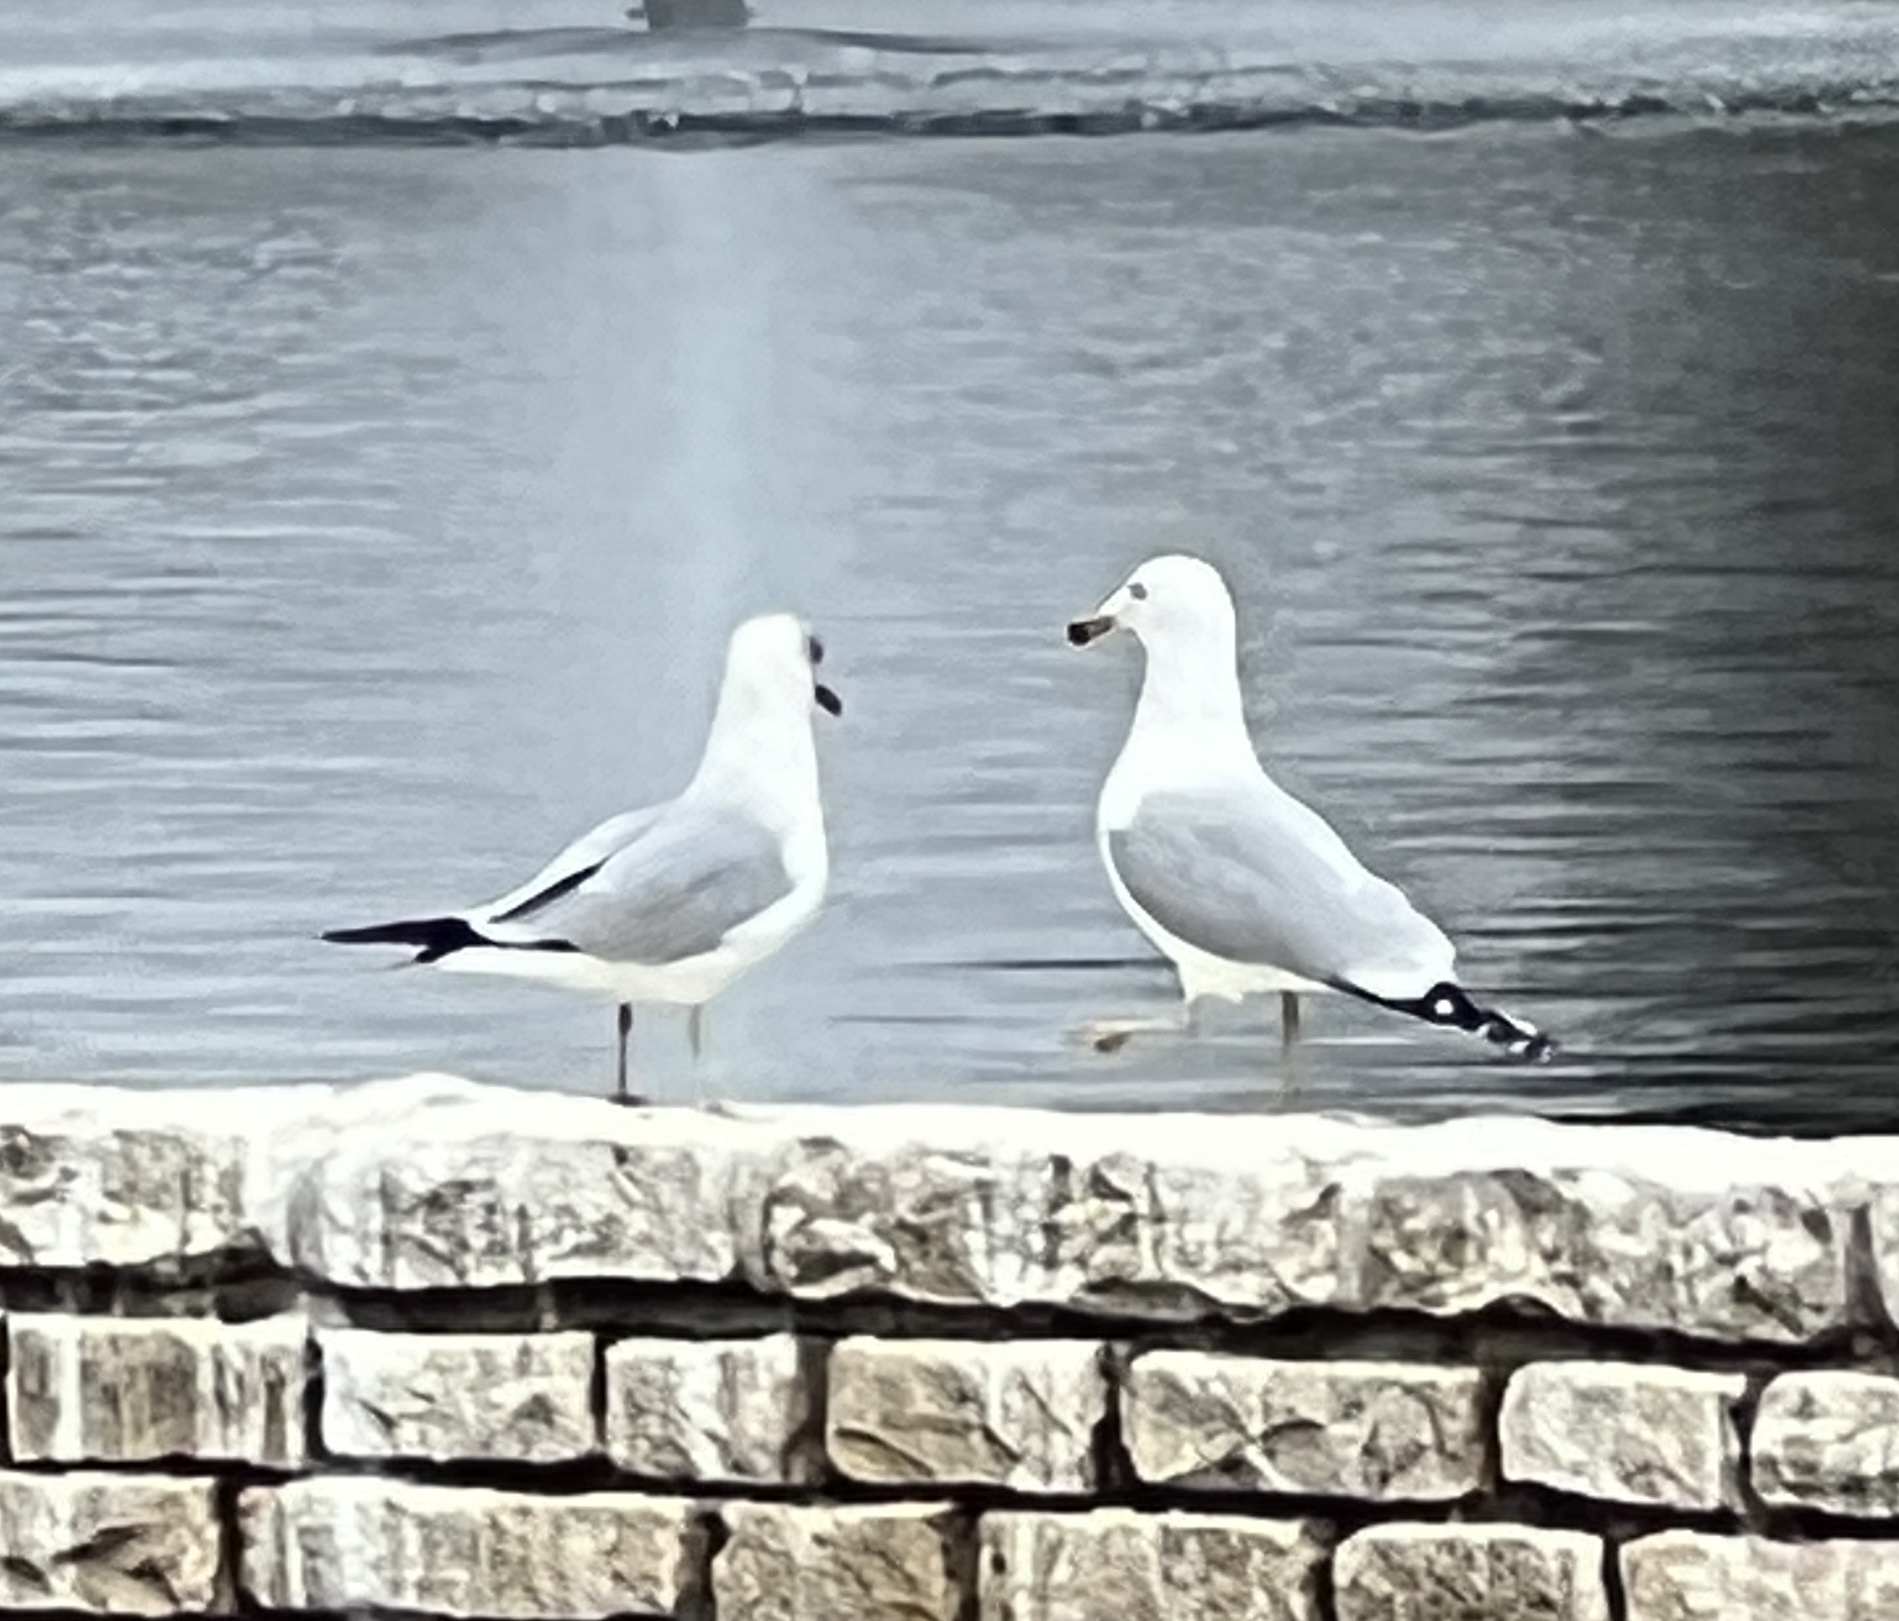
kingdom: Animalia
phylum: Chordata
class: Aves
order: Charadriiformes
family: Laridae
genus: Larus
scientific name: Larus delawarensis
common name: Ring-billed gull
